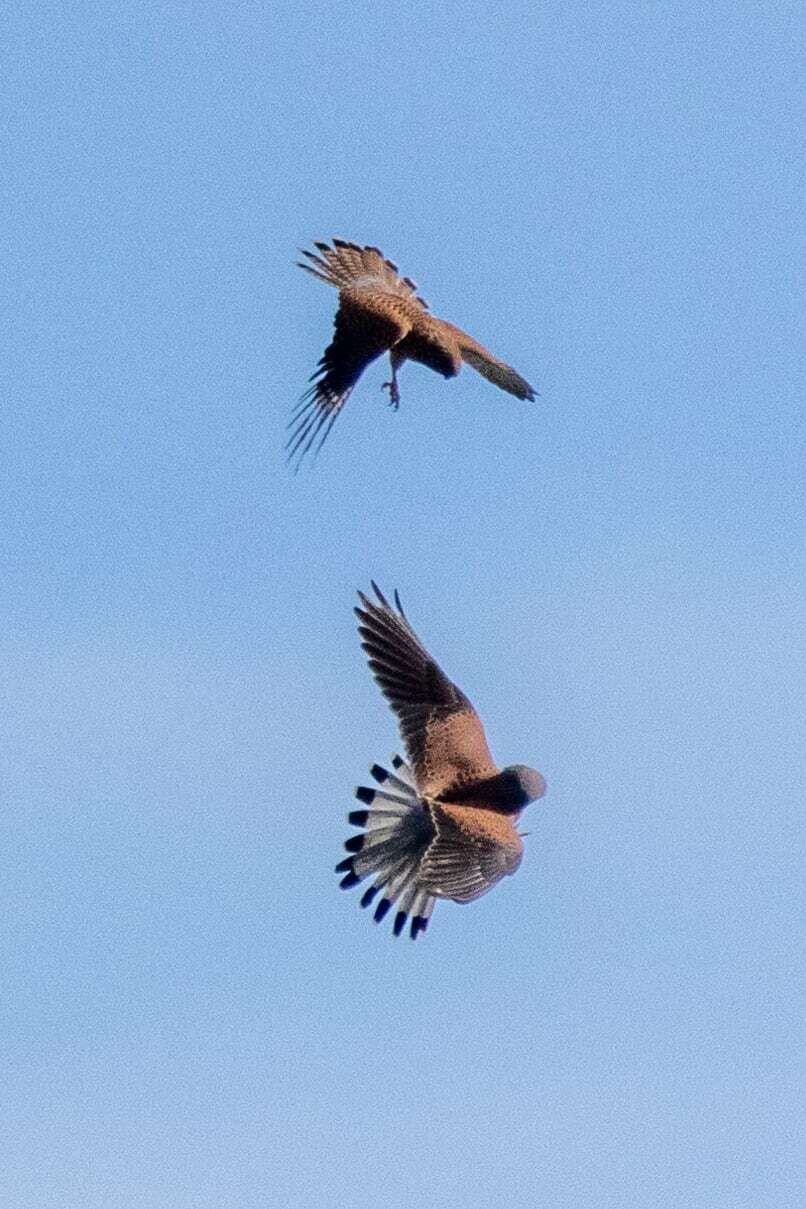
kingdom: Animalia
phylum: Chordata
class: Aves
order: Falconiformes
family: Falconidae
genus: Falco
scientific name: Falco tinnunculus
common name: Common kestrel
